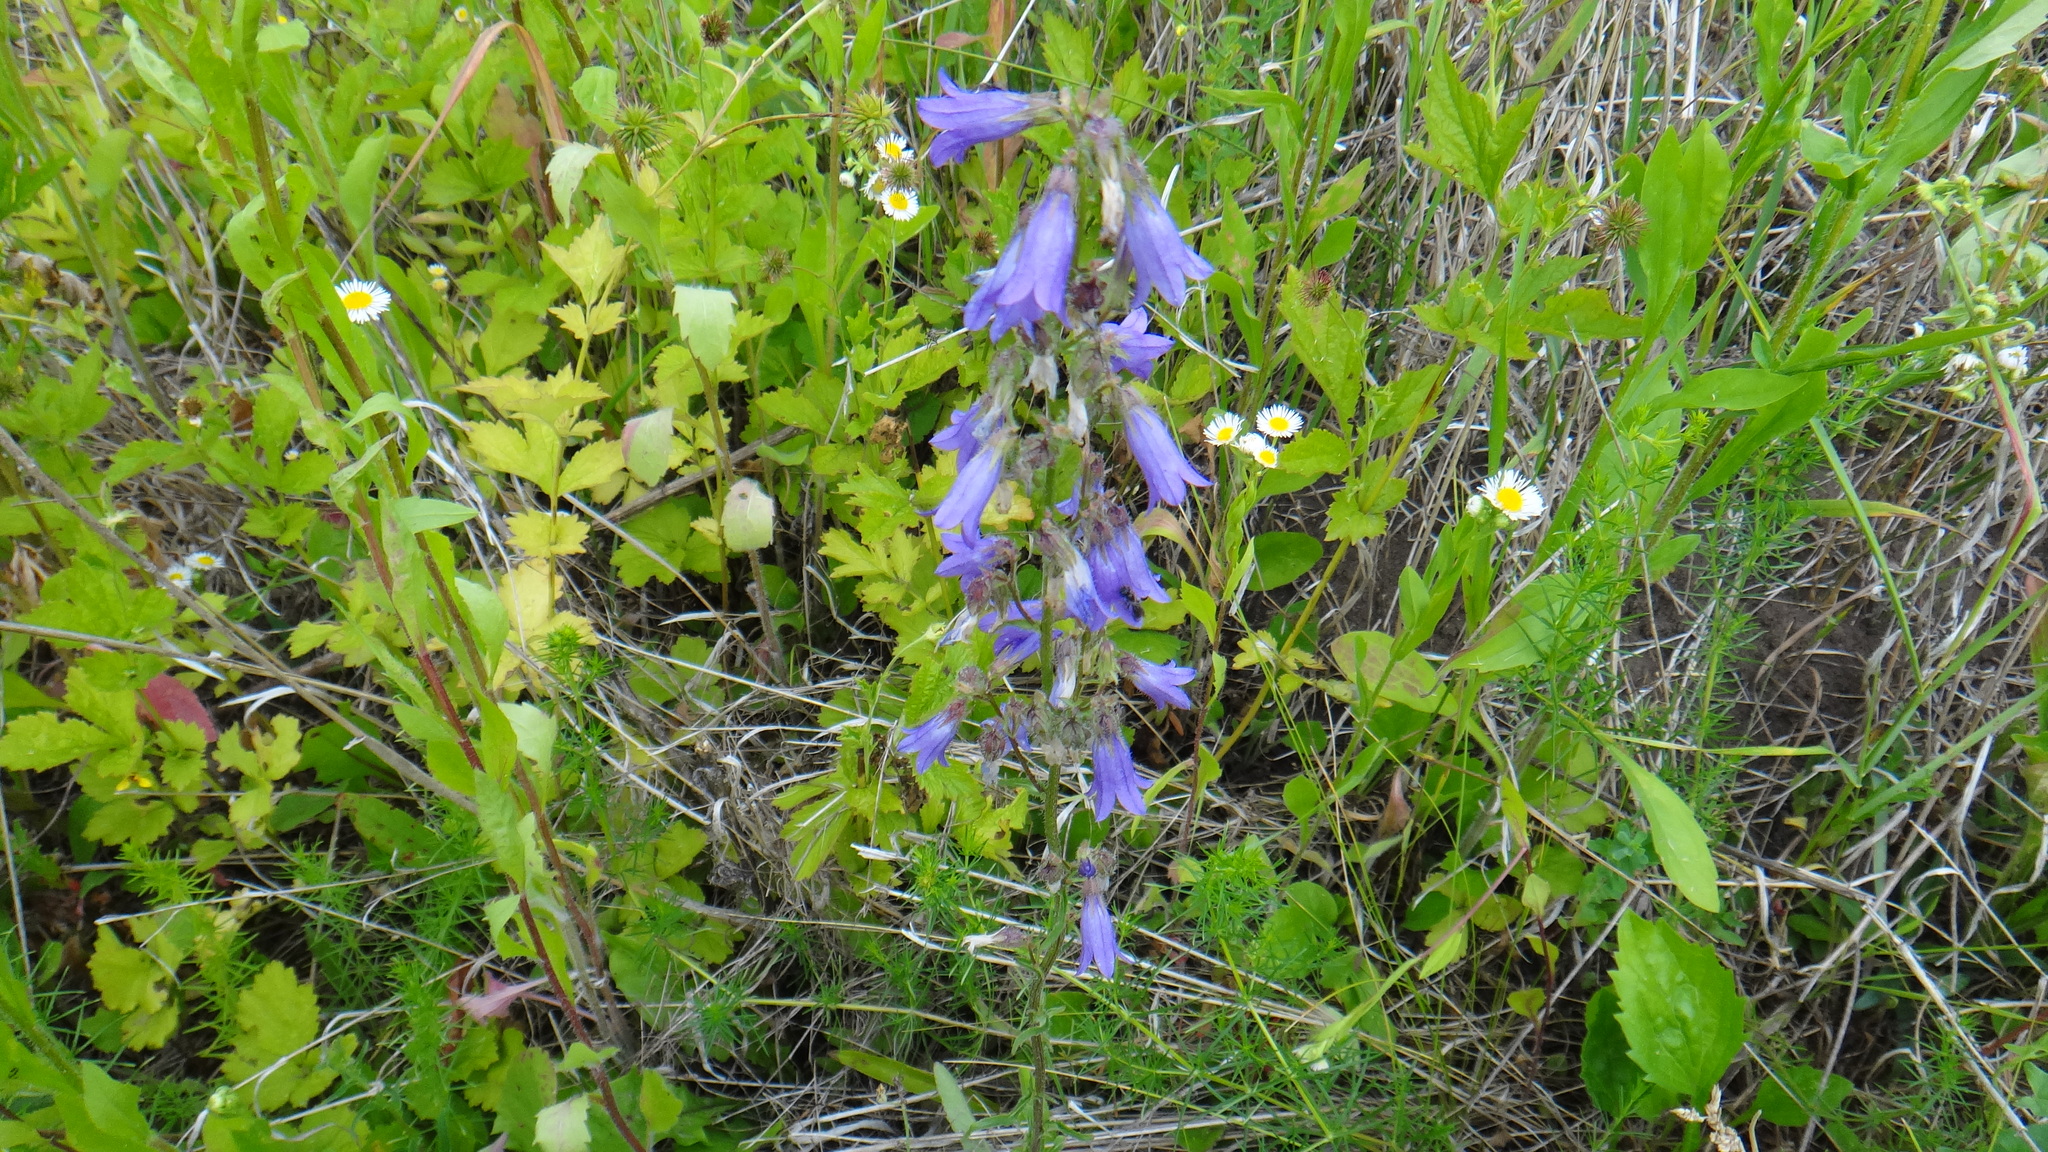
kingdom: Plantae
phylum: Tracheophyta
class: Magnoliopsida
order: Asterales
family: Campanulaceae
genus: Campanula
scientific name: Campanula sibirica
